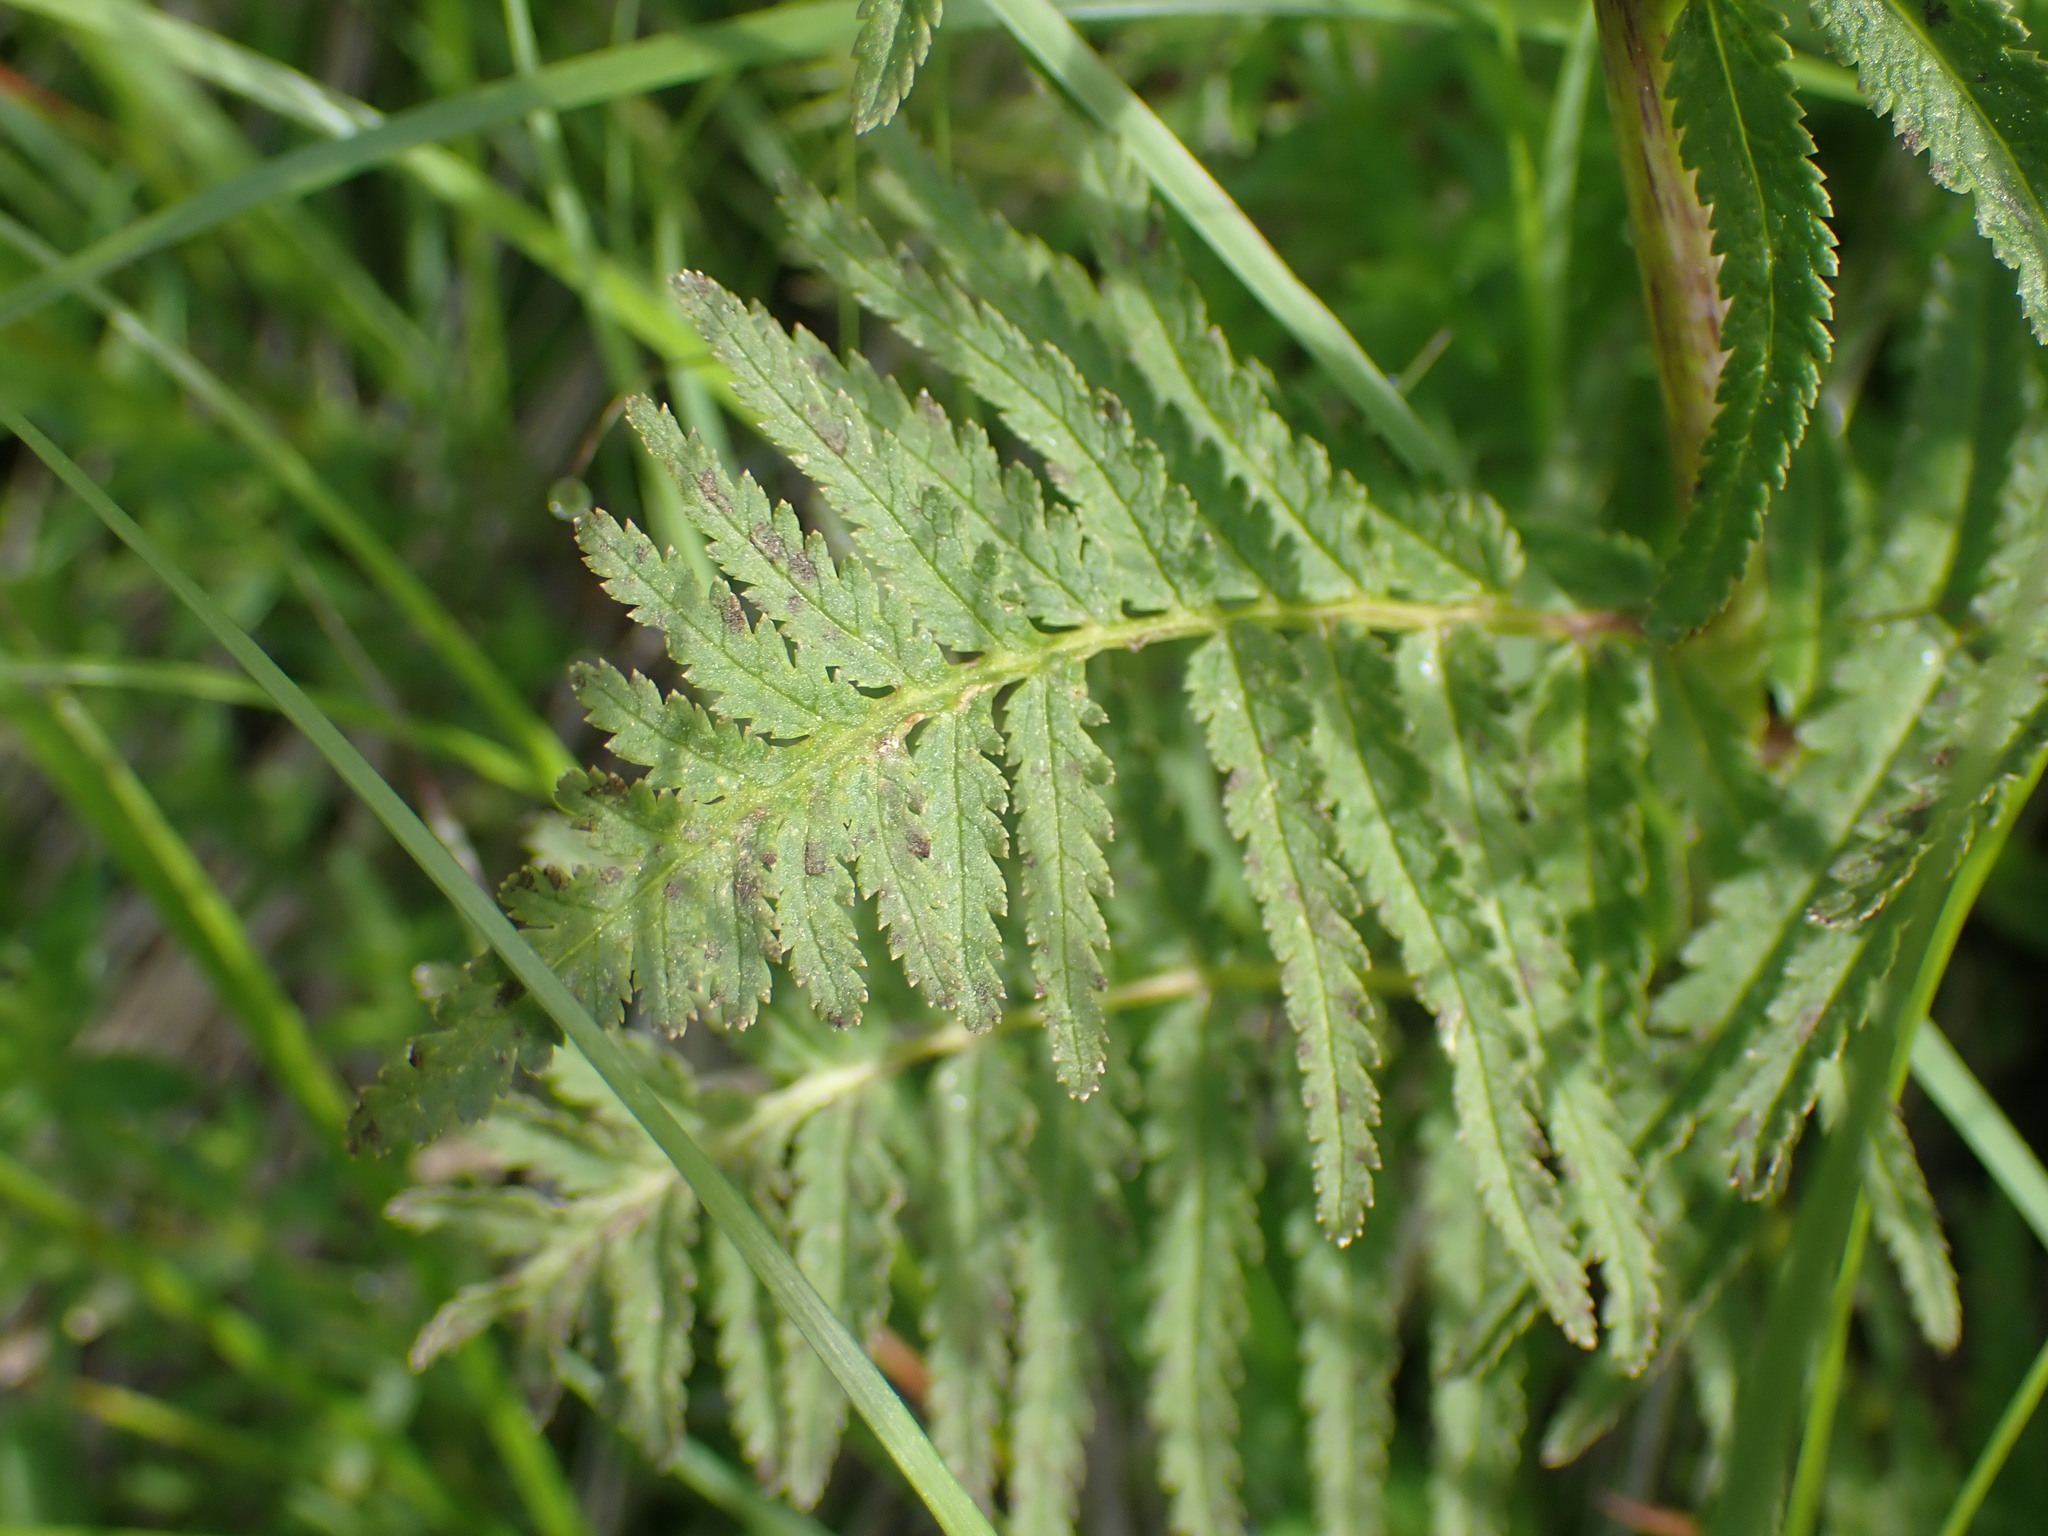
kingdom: Plantae
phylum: Tracheophyta
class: Magnoliopsida
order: Lamiales
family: Orobanchaceae
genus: Pedicularis
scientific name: Pedicularis bracteosa
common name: Bracted lousewort
